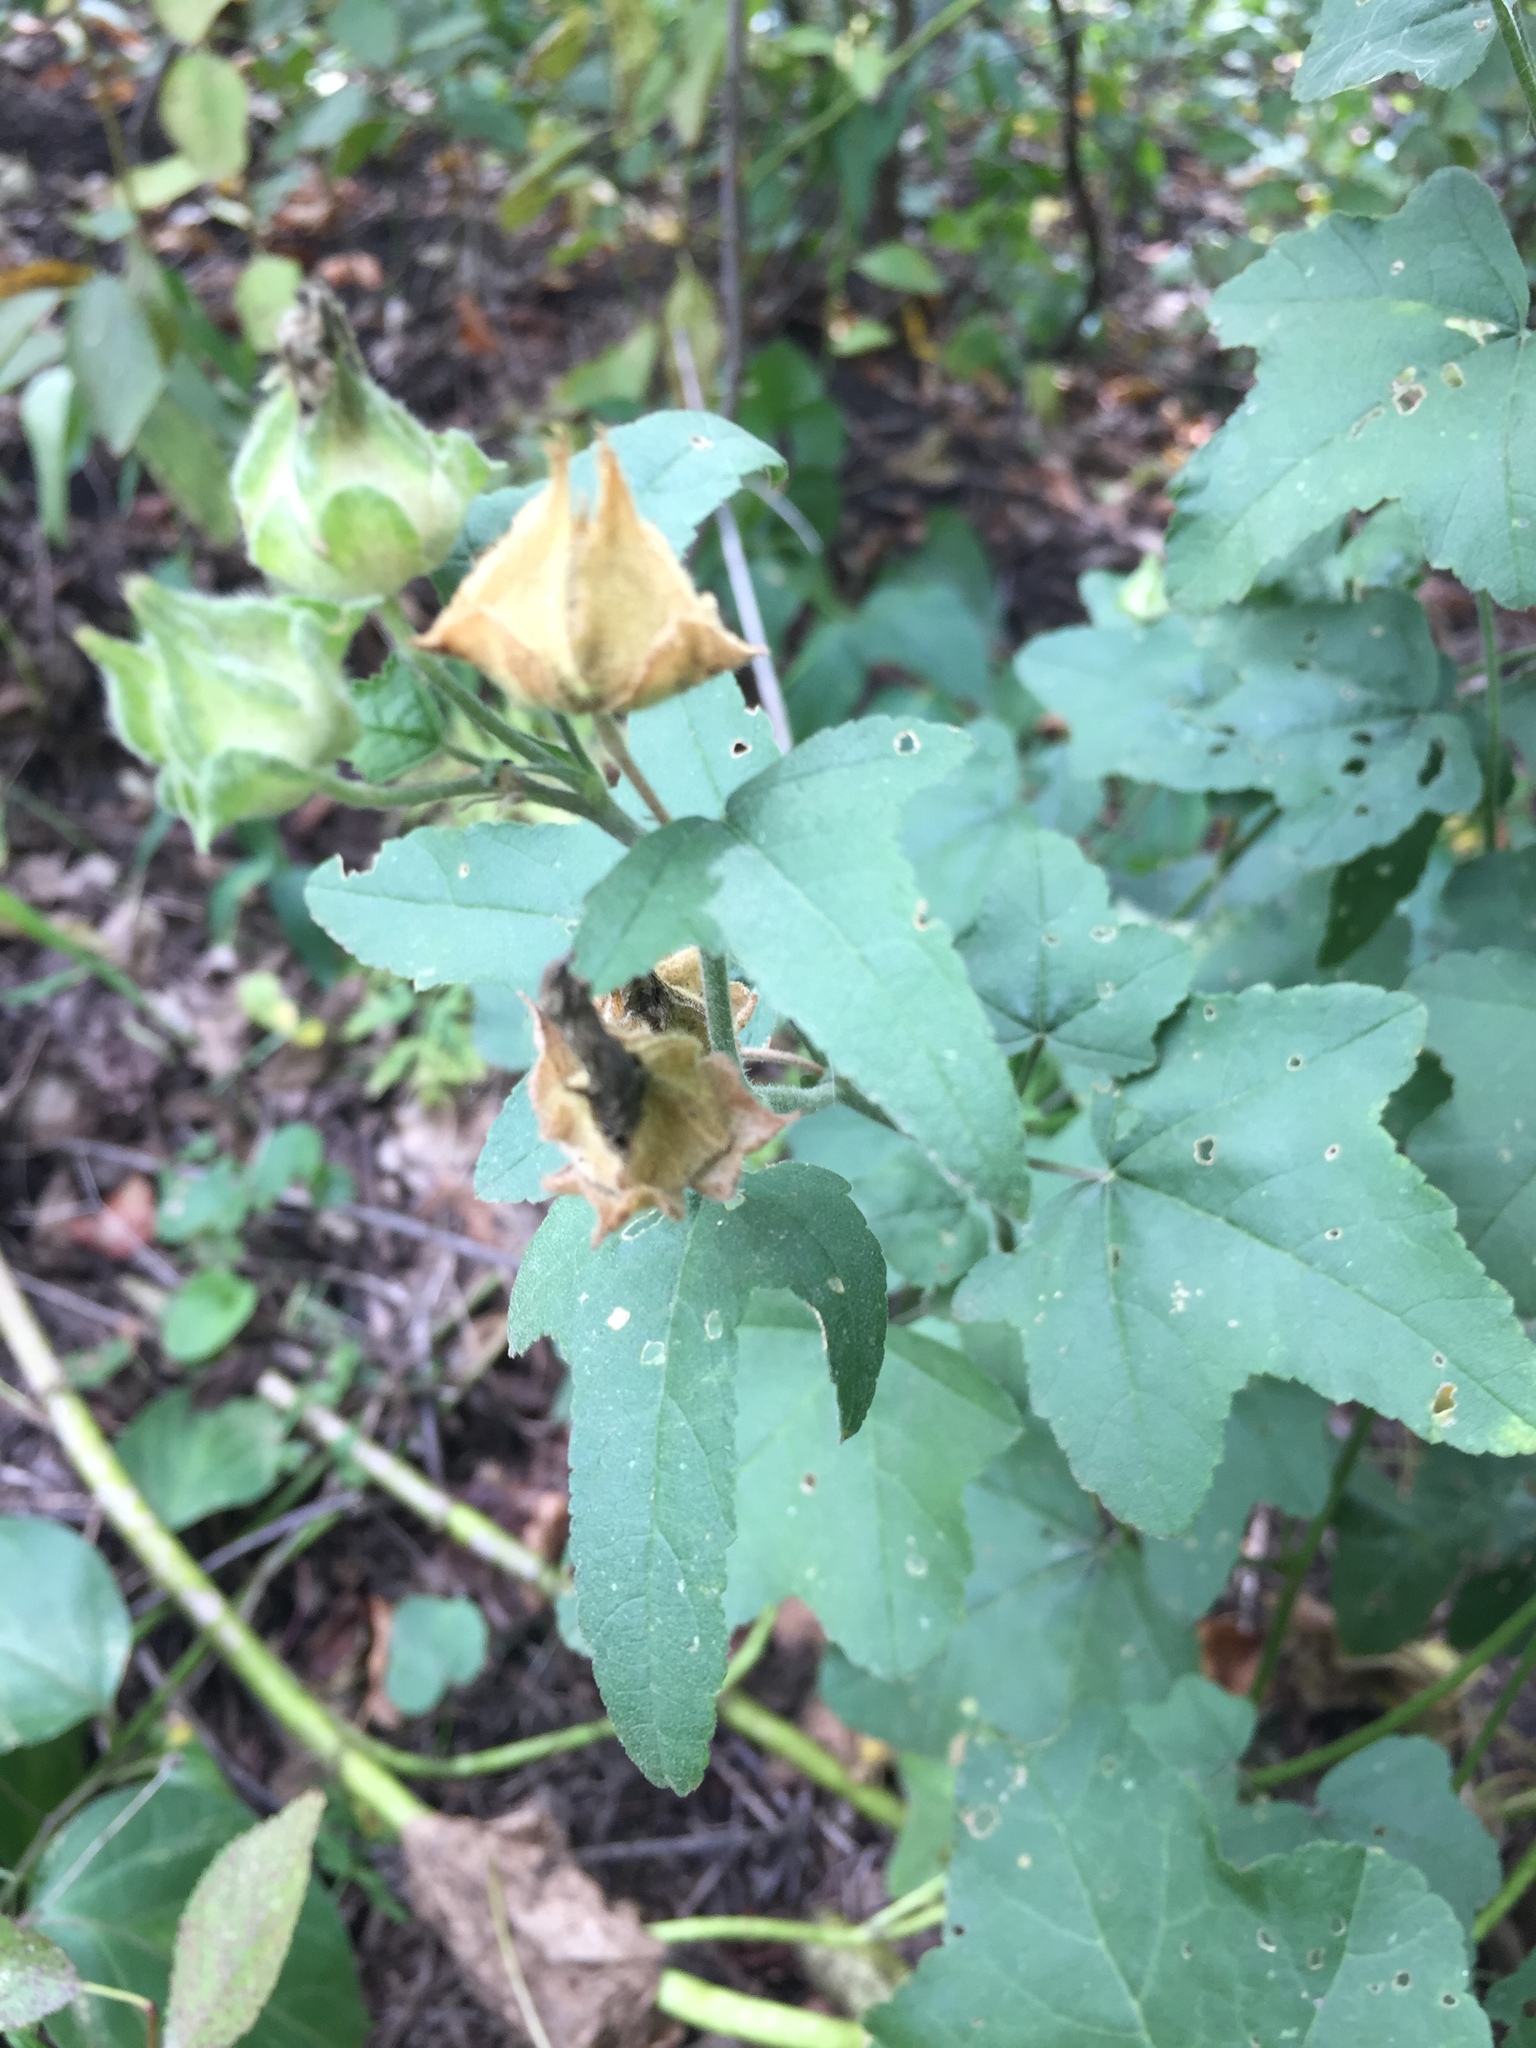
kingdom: Plantae
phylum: Tracheophyta
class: Magnoliopsida
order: Malvales
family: Malvaceae
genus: Malva
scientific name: Malva thuringiaca
